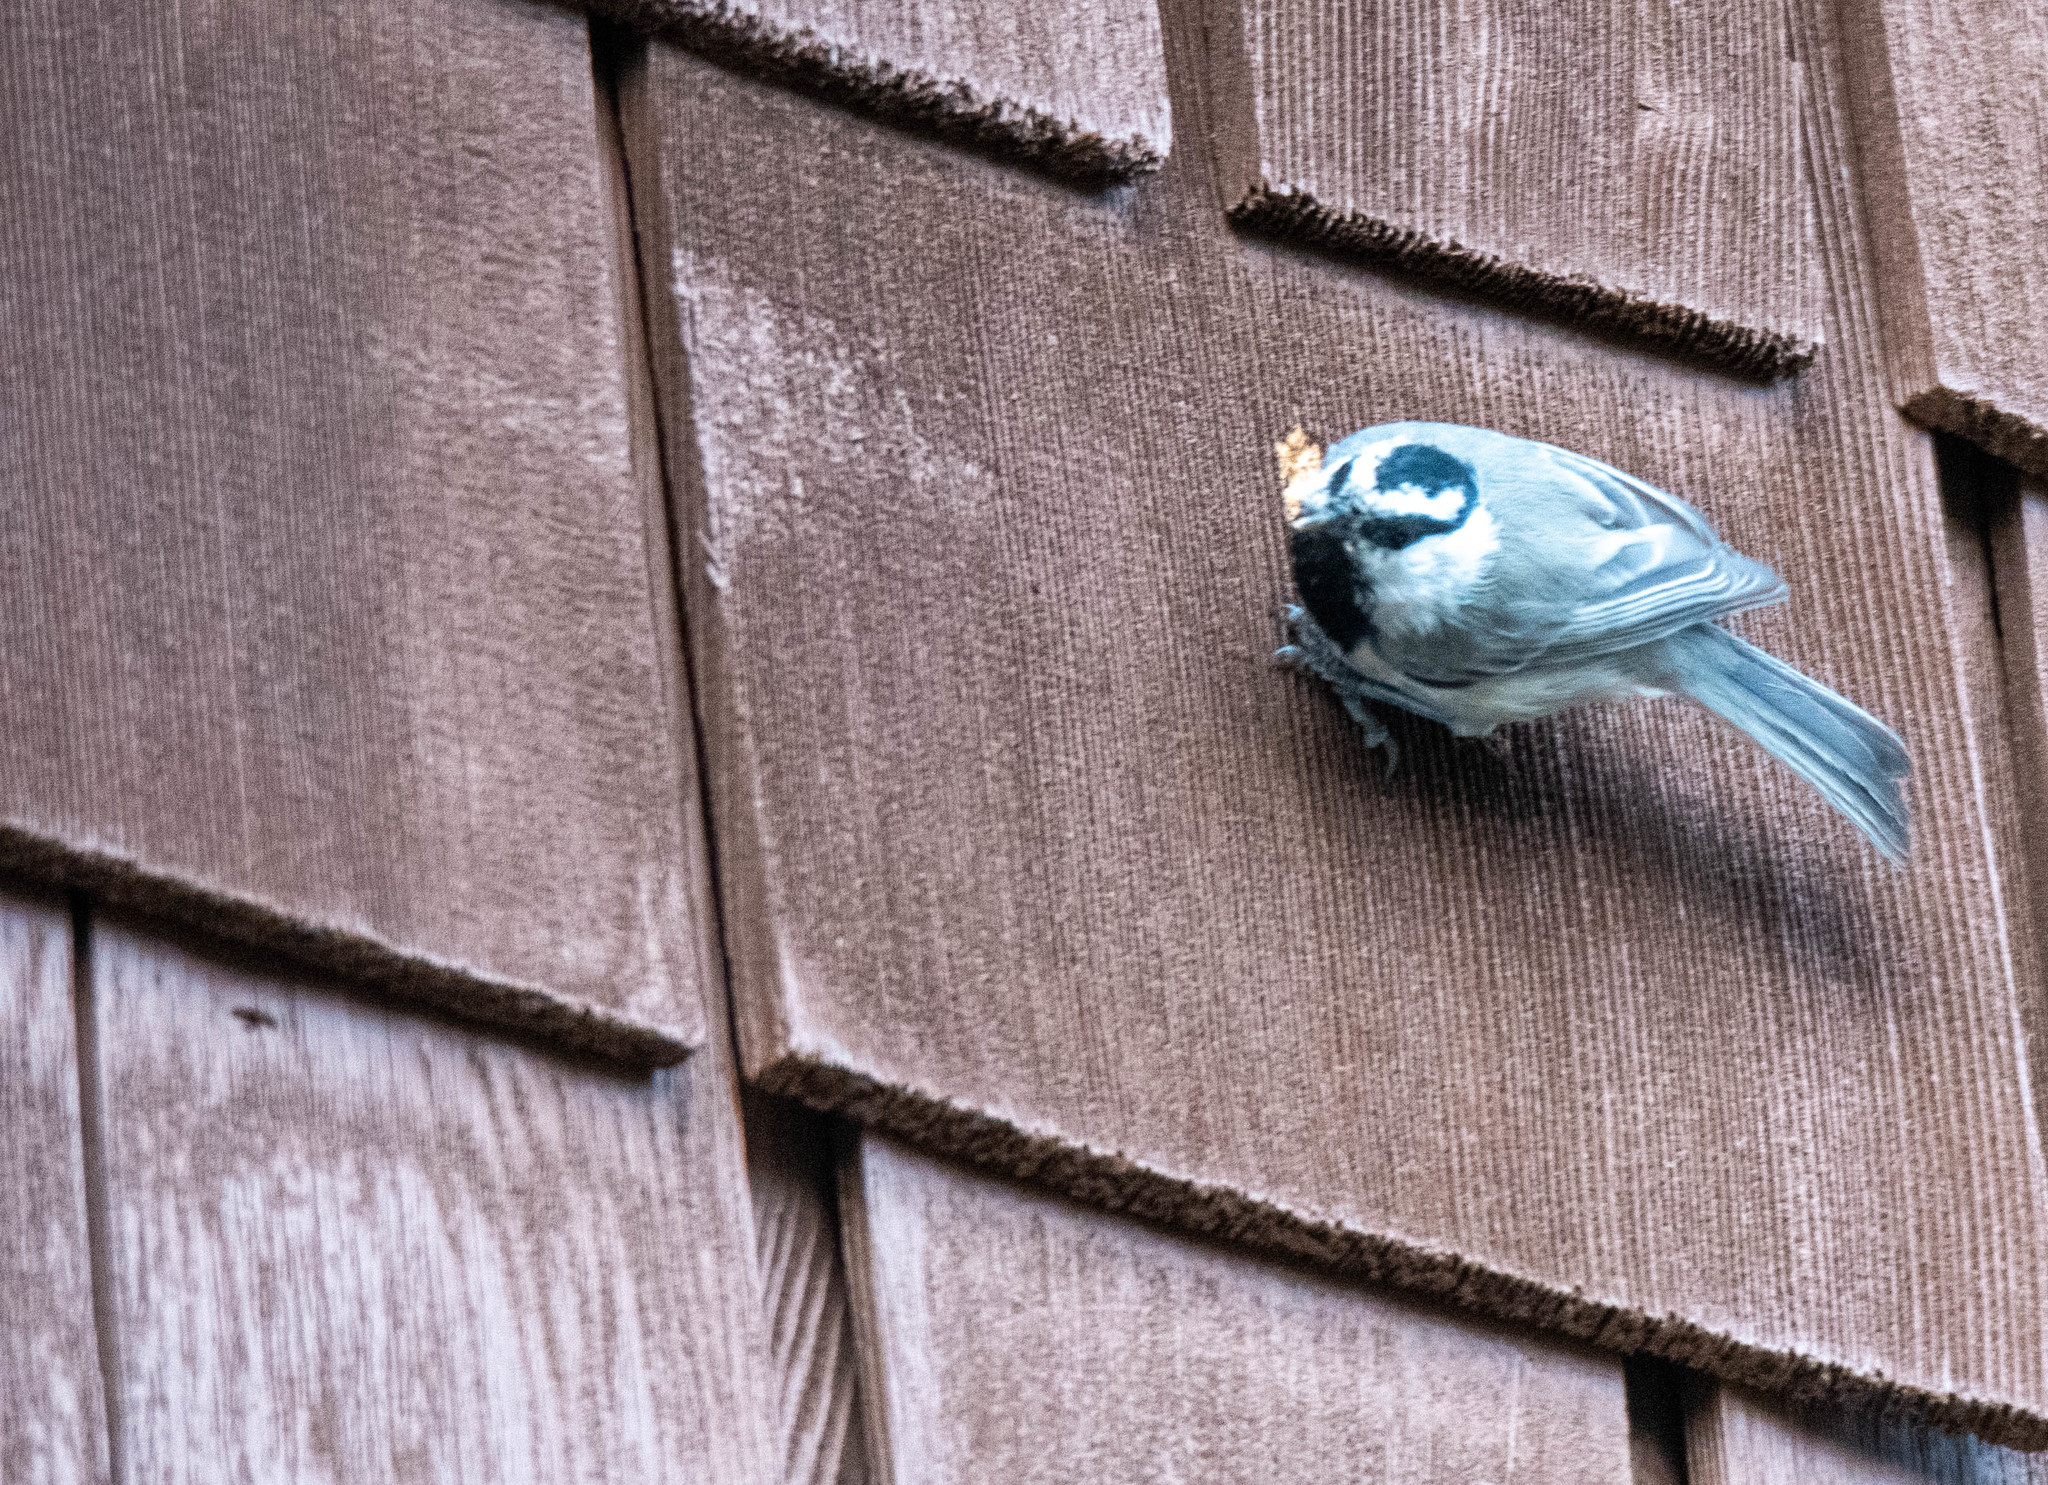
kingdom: Animalia
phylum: Chordata
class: Aves
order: Passeriformes
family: Paridae
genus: Poecile
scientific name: Poecile gambeli
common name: Mountain chickadee
